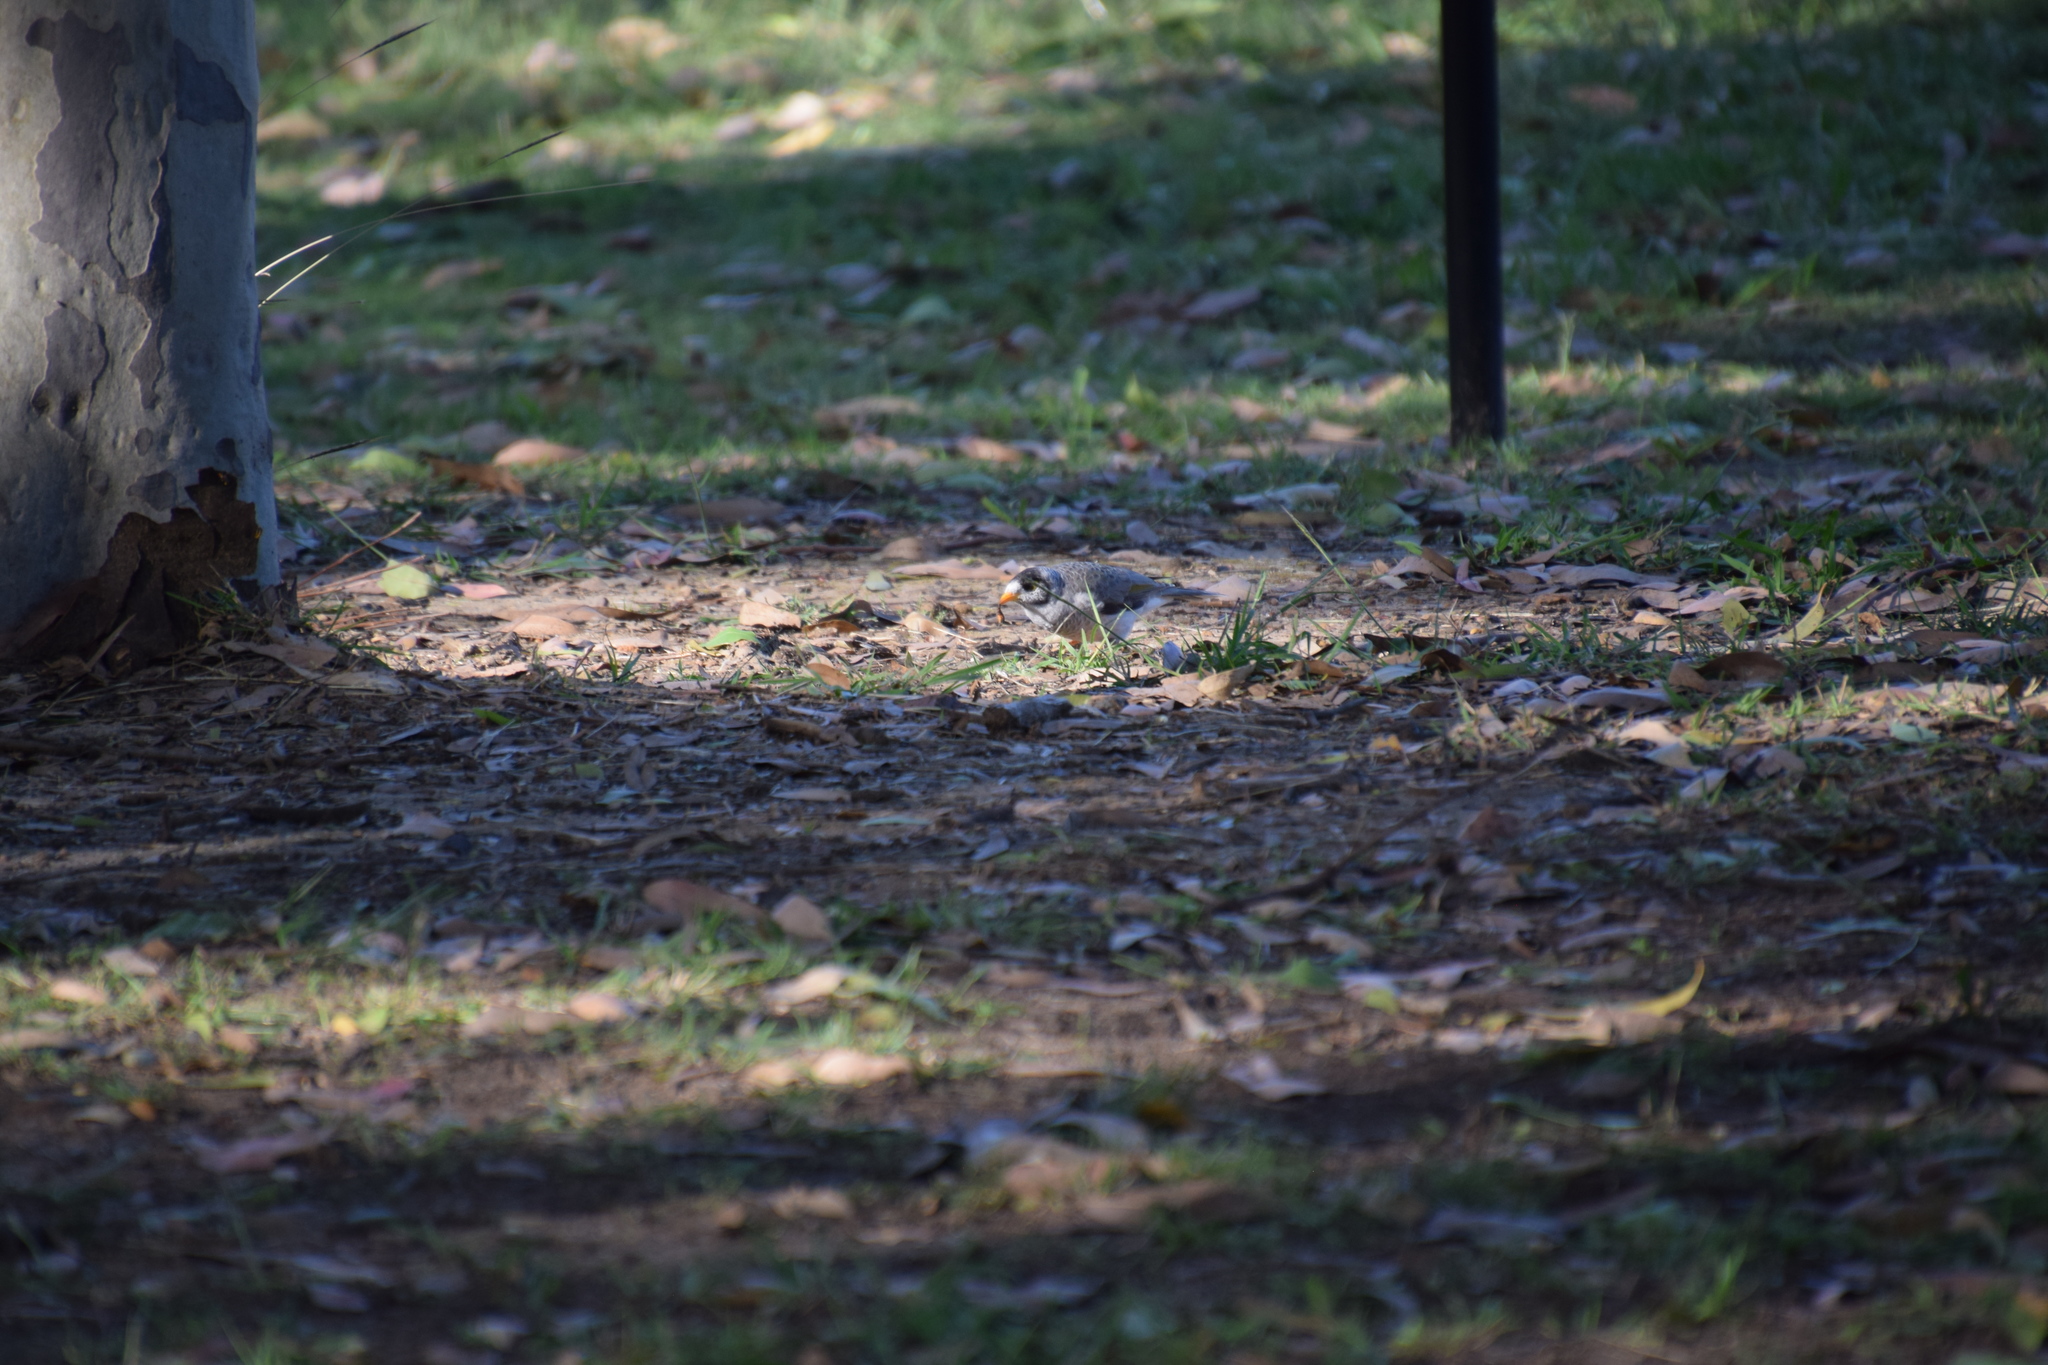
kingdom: Animalia
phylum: Chordata
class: Aves
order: Passeriformes
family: Meliphagidae
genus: Manorina
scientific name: Manorina melanocephala
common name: Noisy miner
